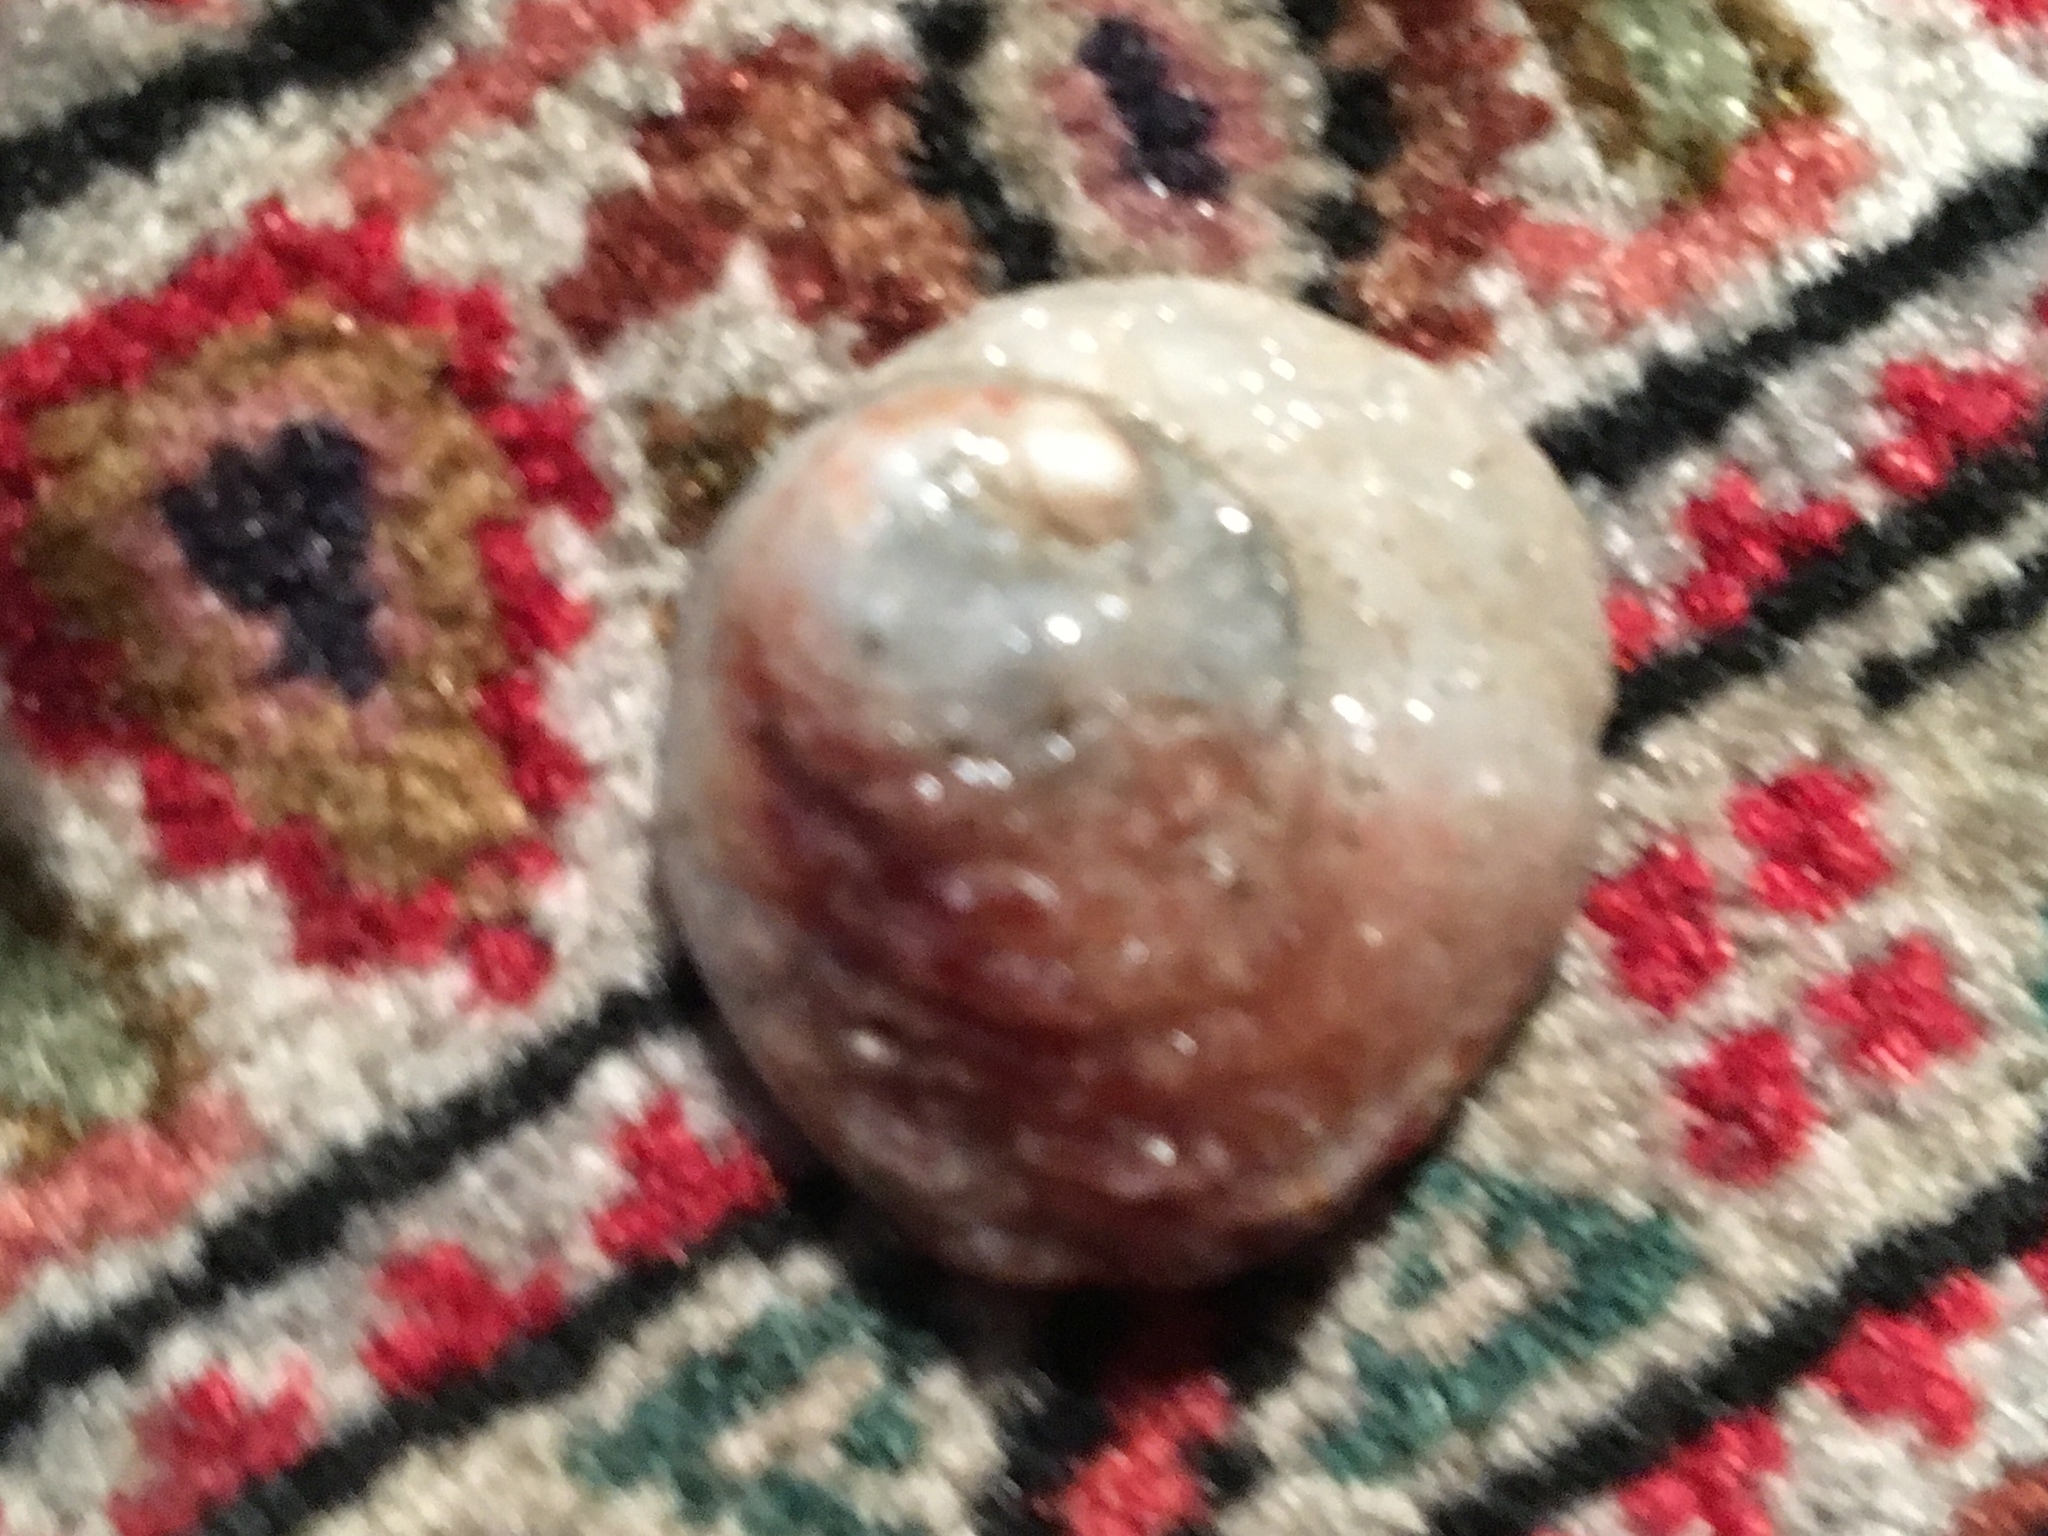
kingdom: Animalia
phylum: Mollusca
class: Bivalvia
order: Venerida
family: Chamidae
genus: Chama
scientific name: Chama arcana
